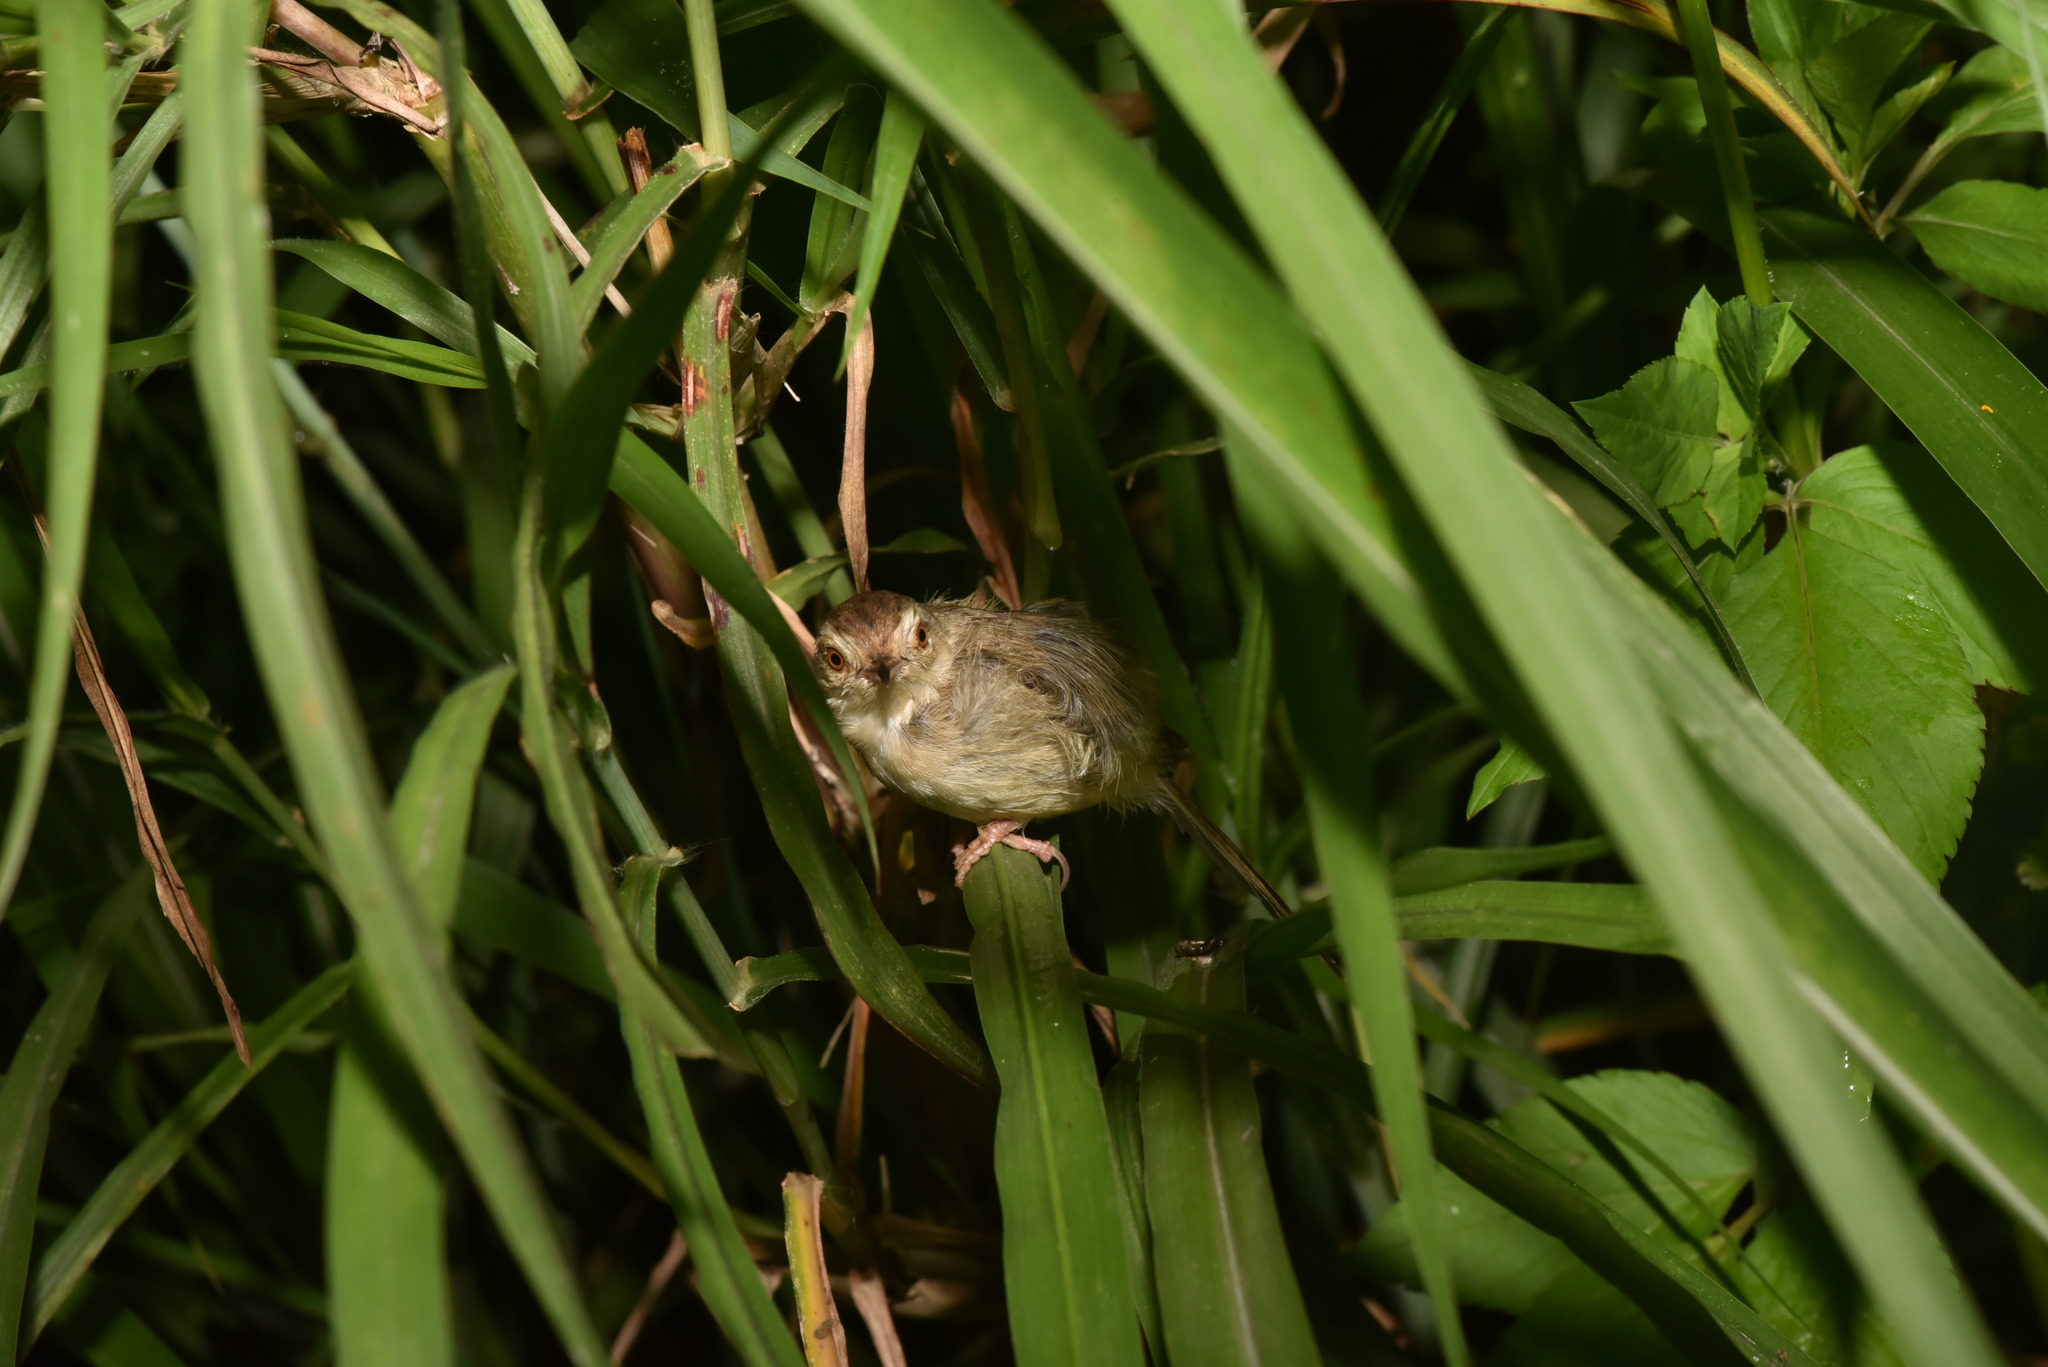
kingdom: Animalia
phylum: Chordata
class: Aves
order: Passeriformes
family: Cisticolidae
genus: Prinia
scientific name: Prinia inornata
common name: Plain prinia
